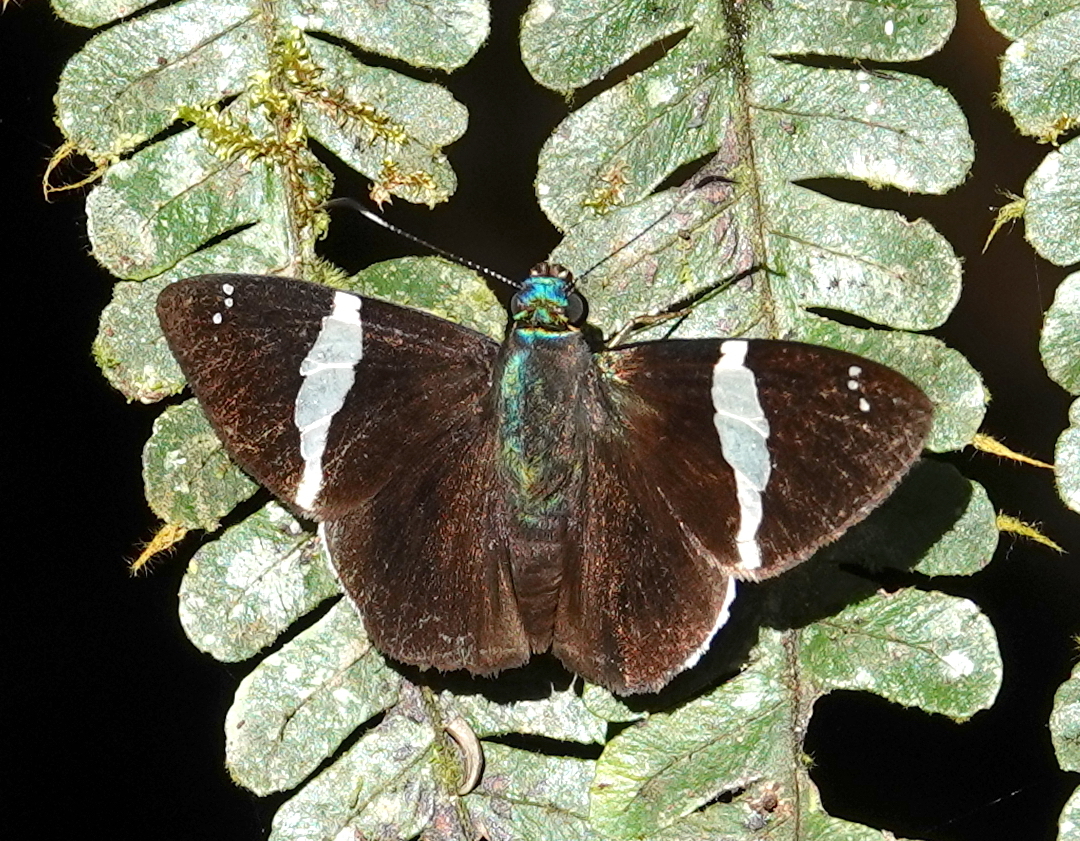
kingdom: Animalia
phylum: Arthropoda
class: Insecta
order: Lepidoptera
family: Hesperiidae
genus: Celaenorrhinus
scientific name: Celaenorrhinus
